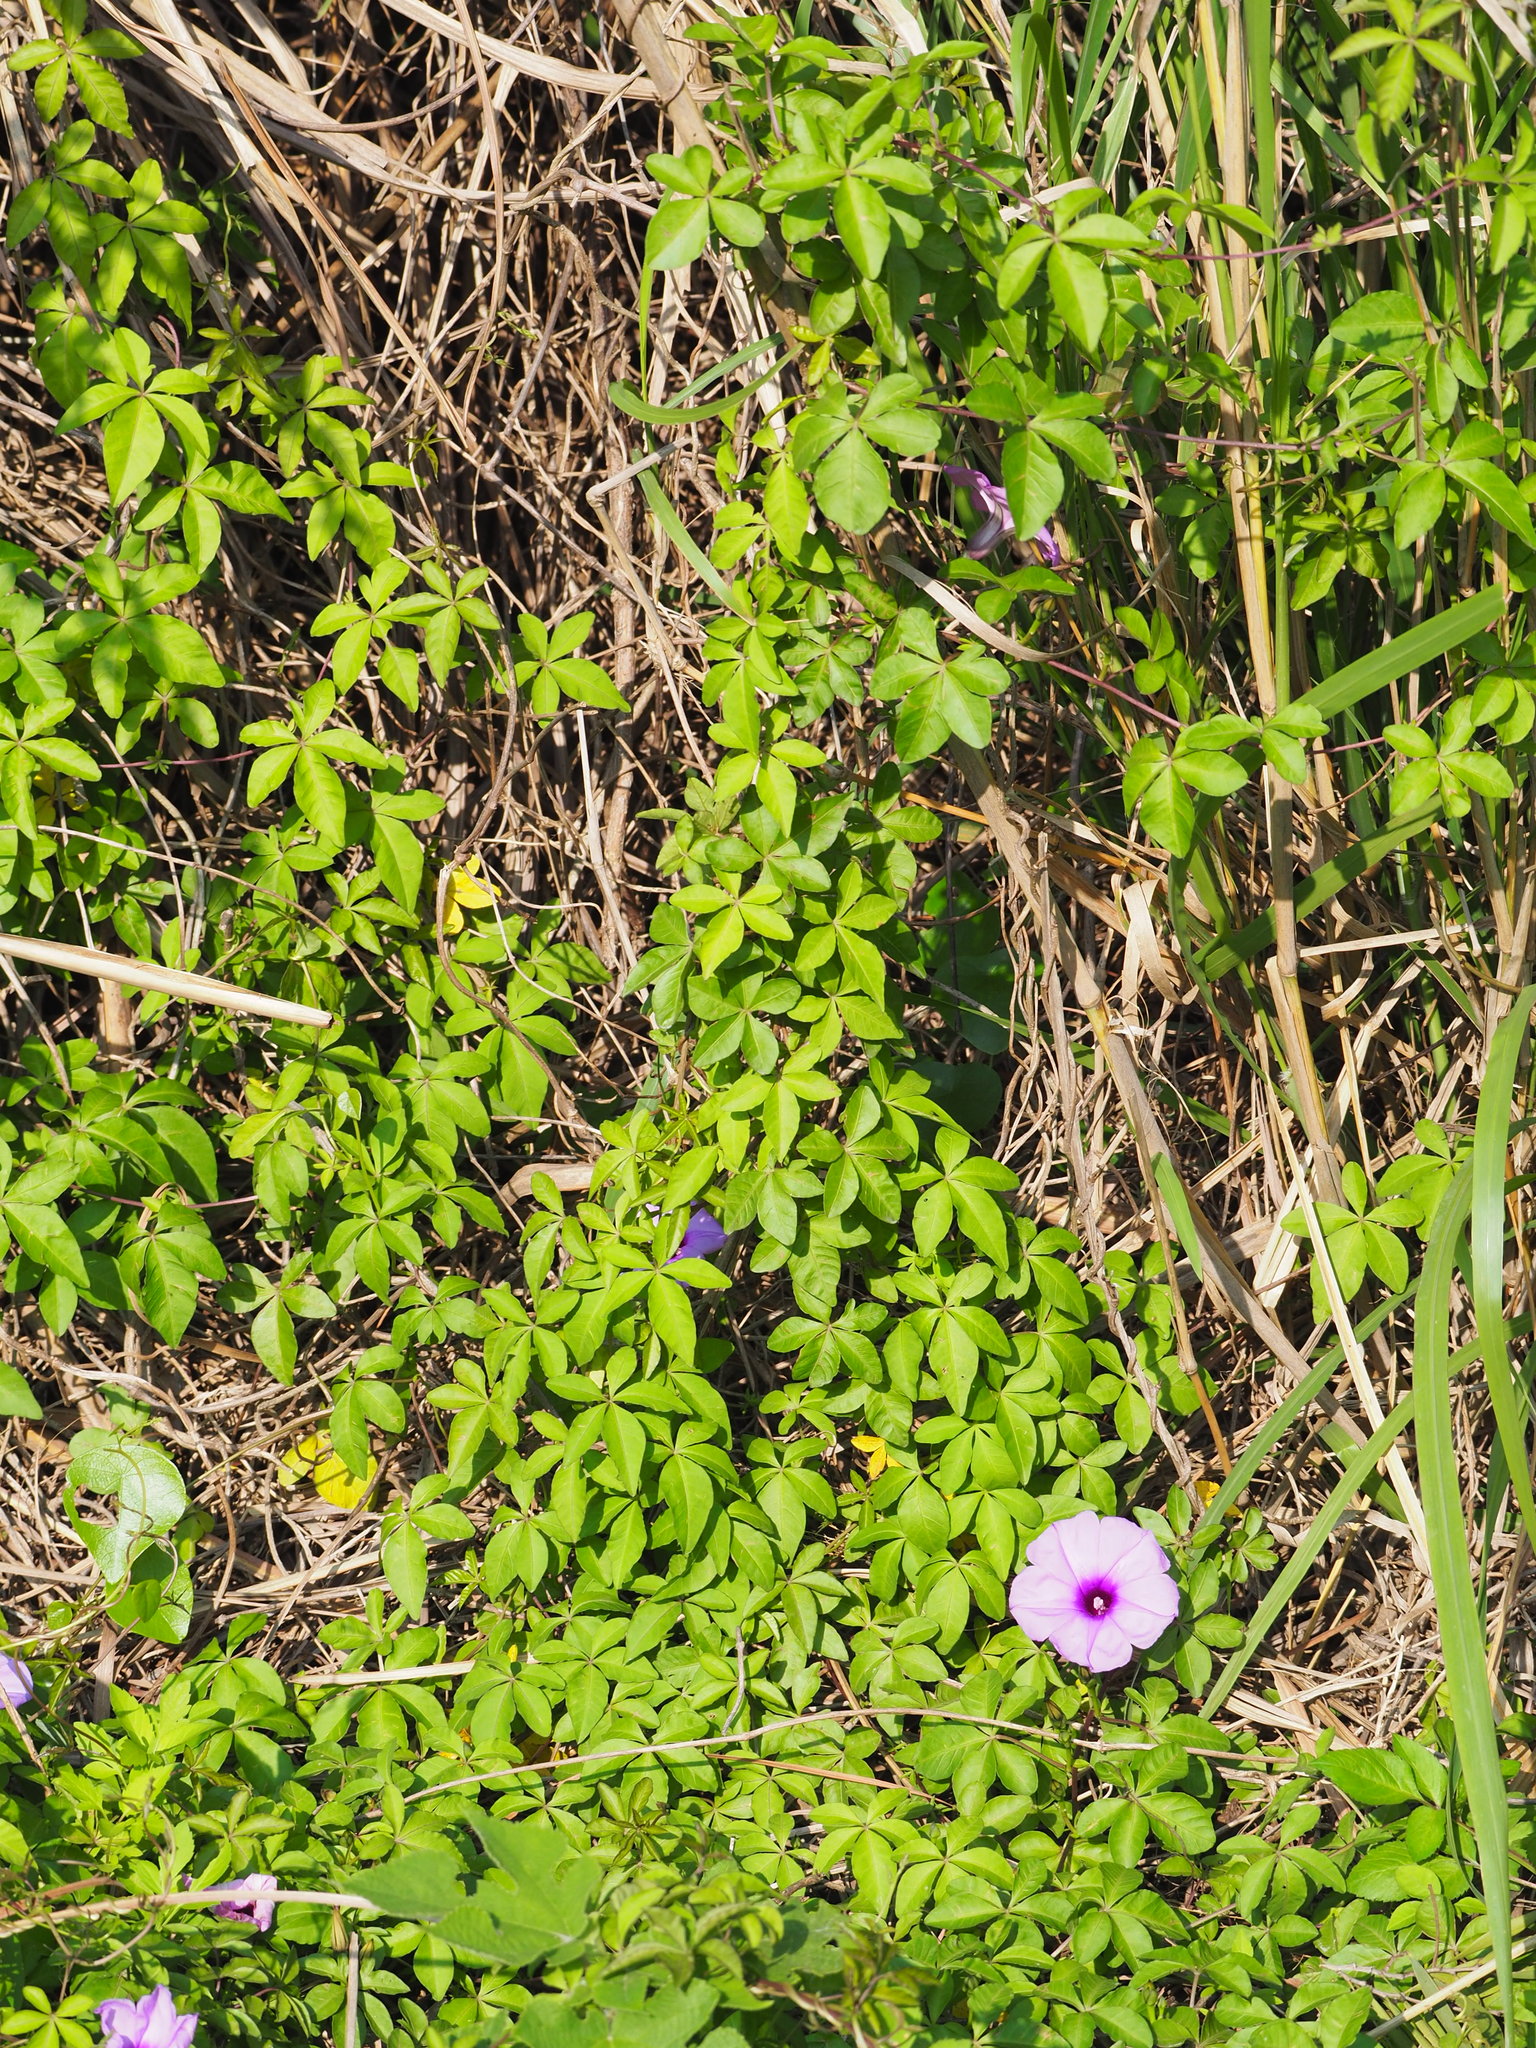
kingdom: Plantae
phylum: Tracheophyta
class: Magnoliopsida
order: Solanales
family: Convolvulaceae
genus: Ipomoea
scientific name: Ipomoea cairica
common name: Mile a minute vine
